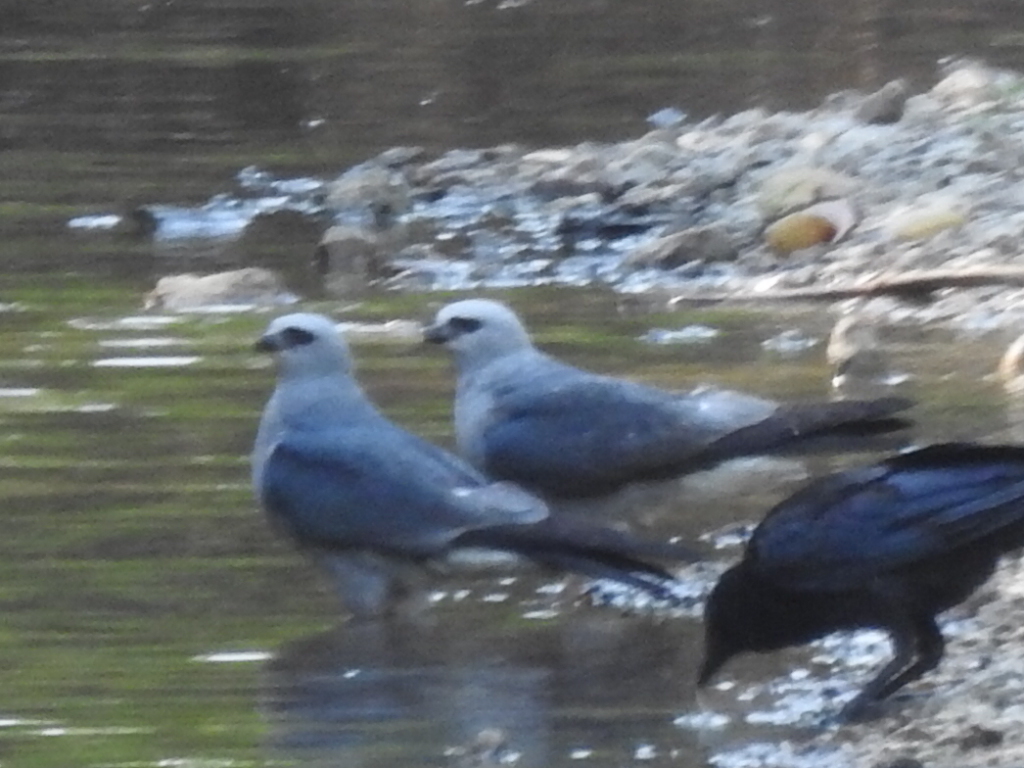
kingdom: Animalia
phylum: Chordata
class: Aves
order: Accipitriformes
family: Accipitridae
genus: Ictinia
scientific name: Ictinia mississippiensis
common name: Mississippi kite
